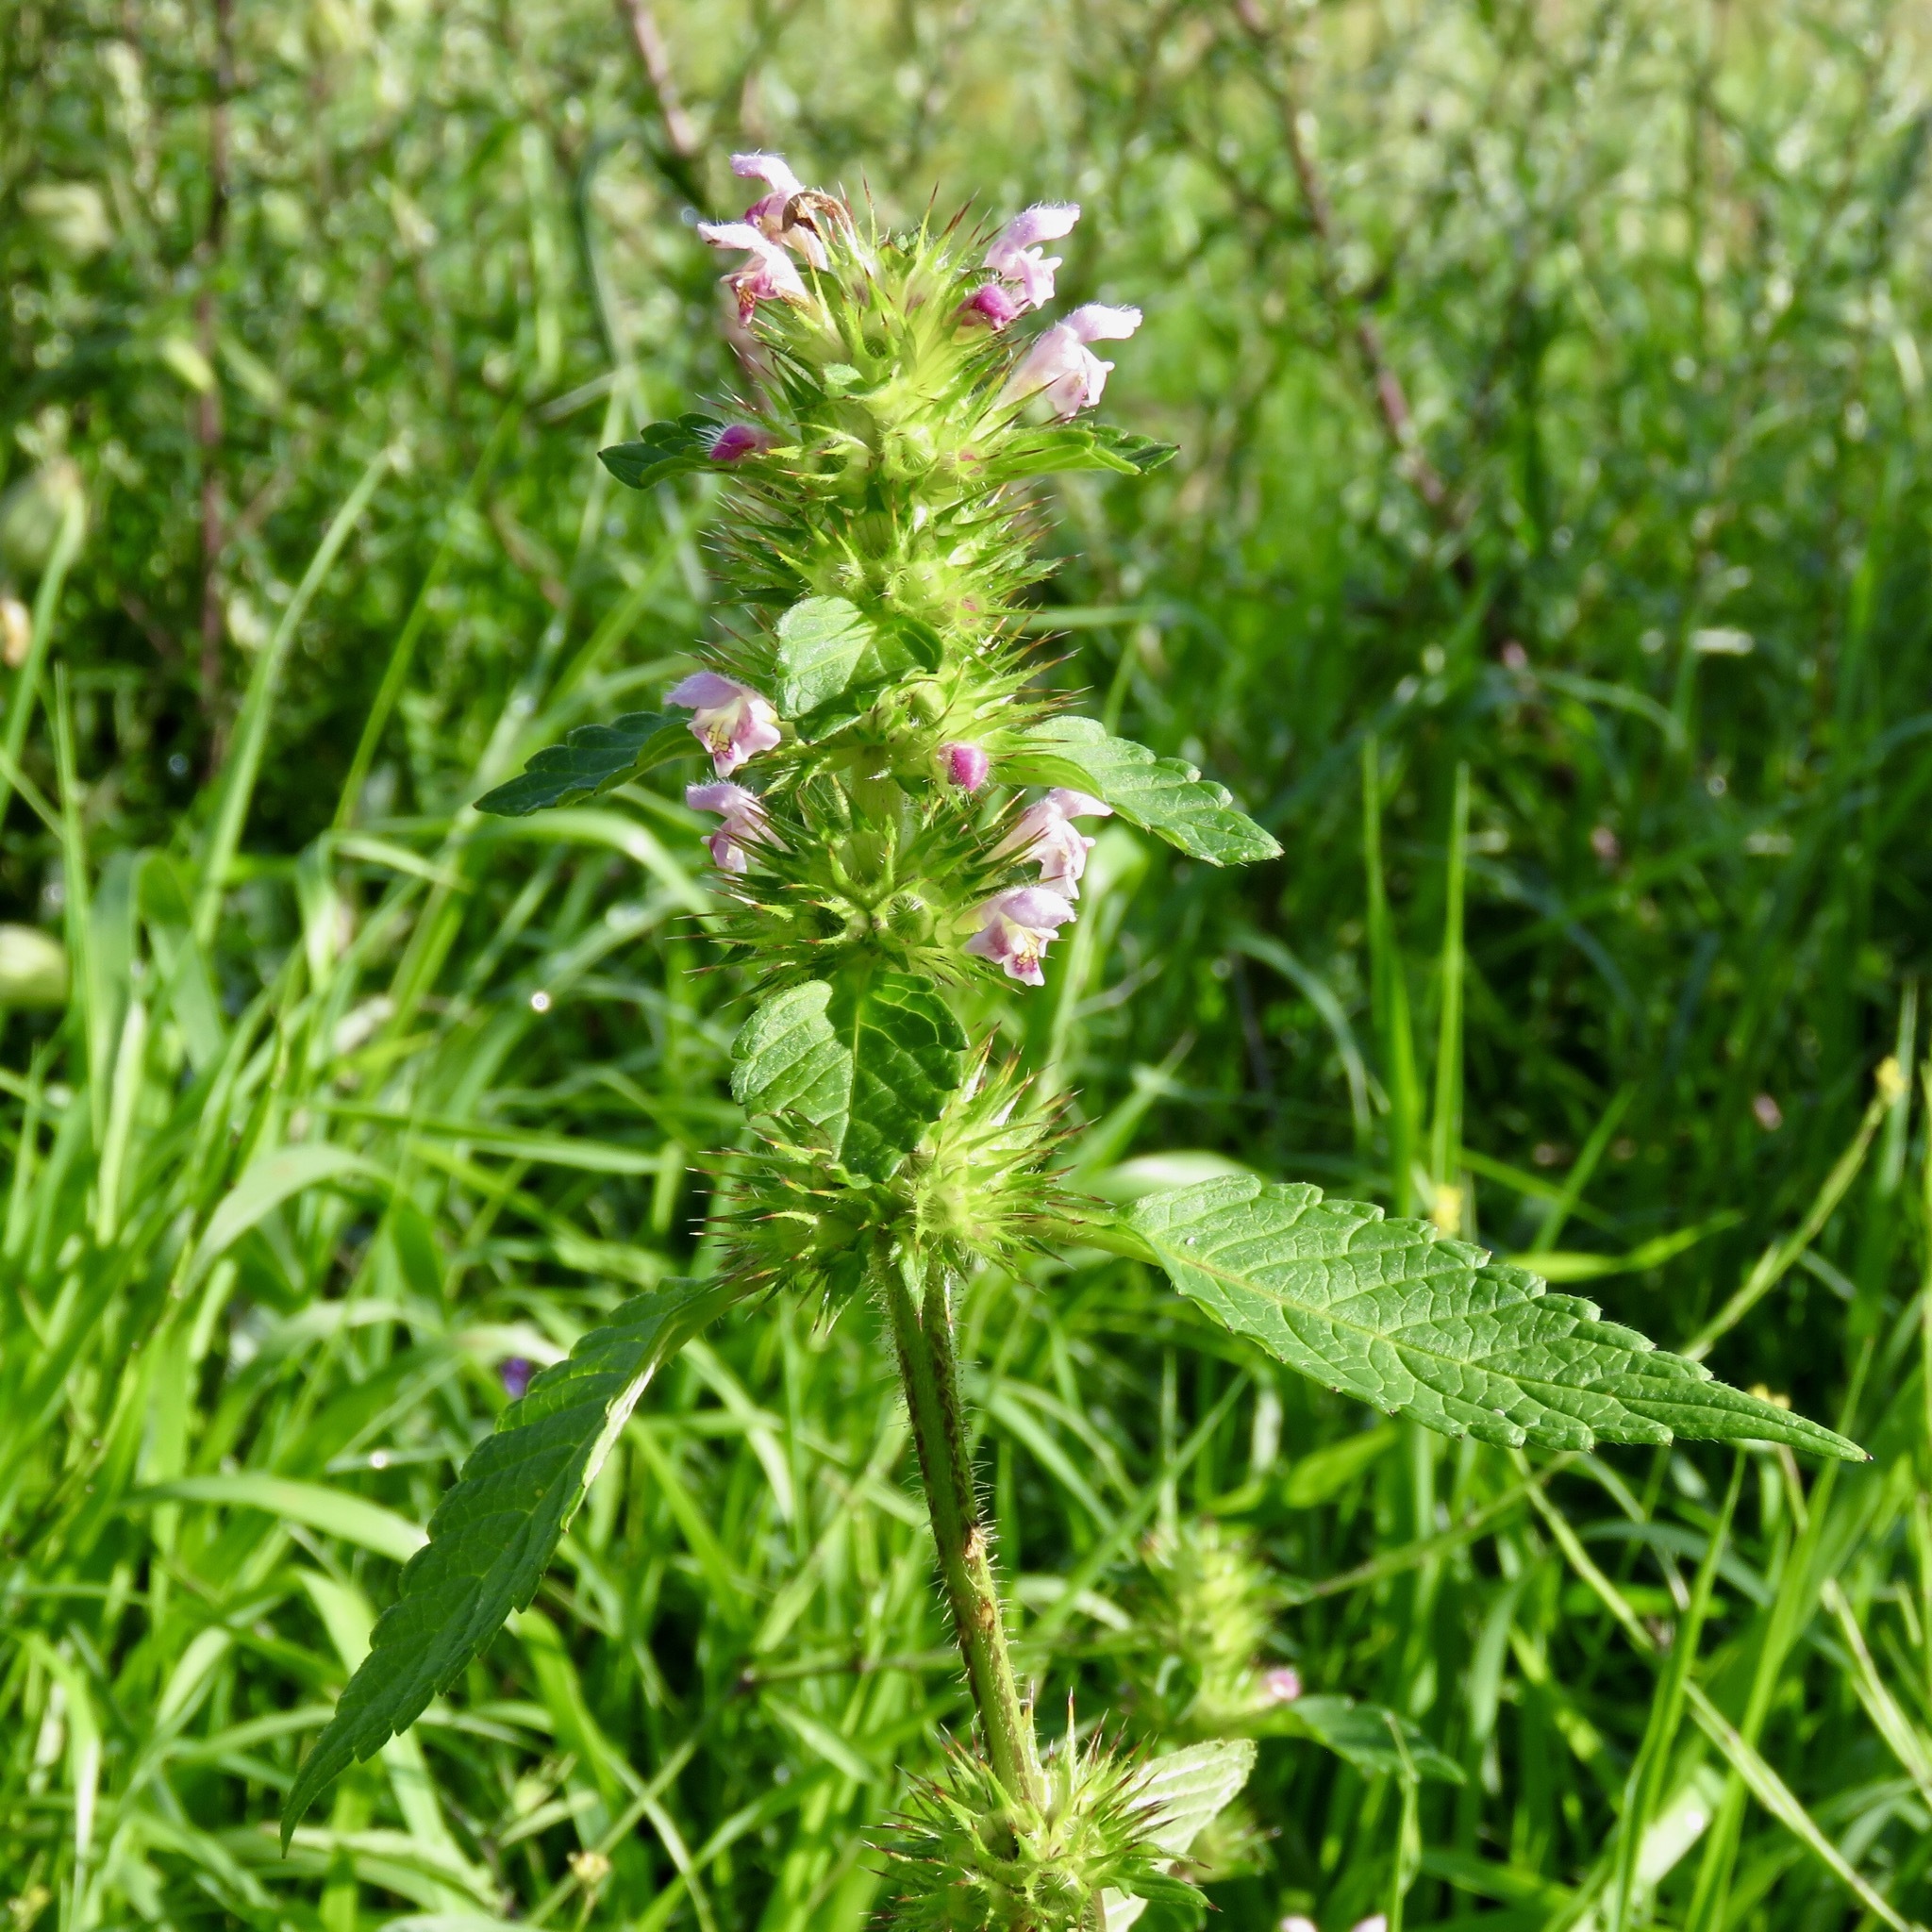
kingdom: Plantae
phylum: Tracheophyta
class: Magnoliopsida
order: Lamiales
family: Lamiaceae
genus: Galeopsis
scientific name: Galeopsis tetrahit
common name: Common hemp-nettle
